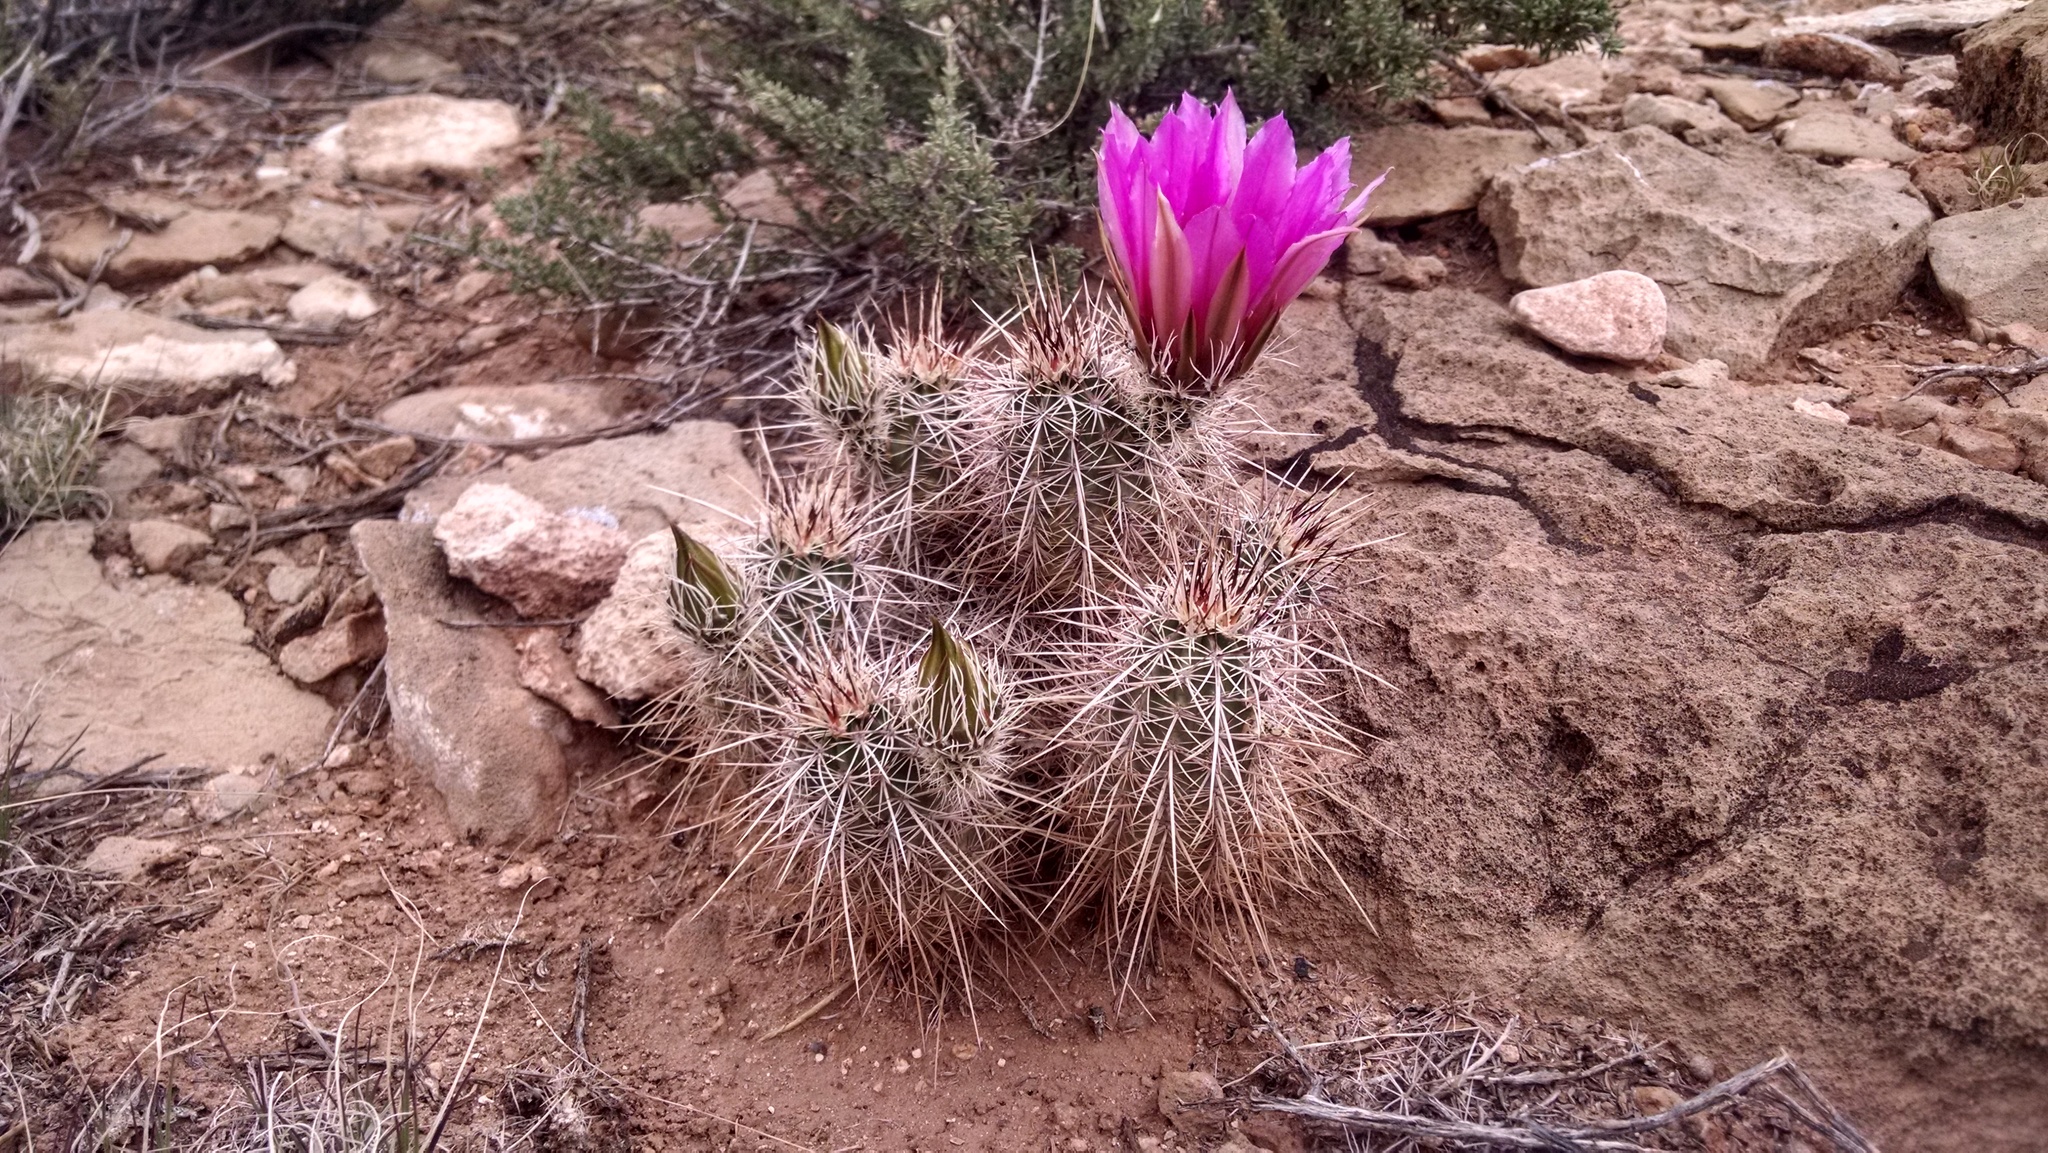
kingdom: Plantae
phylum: Tracheophyta
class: Magnoliopsida
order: Caryophyllales
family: Cactaceae
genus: Echinocereus
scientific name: Echinocereus engelmannii
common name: Engelmann's hedgehog cactus
